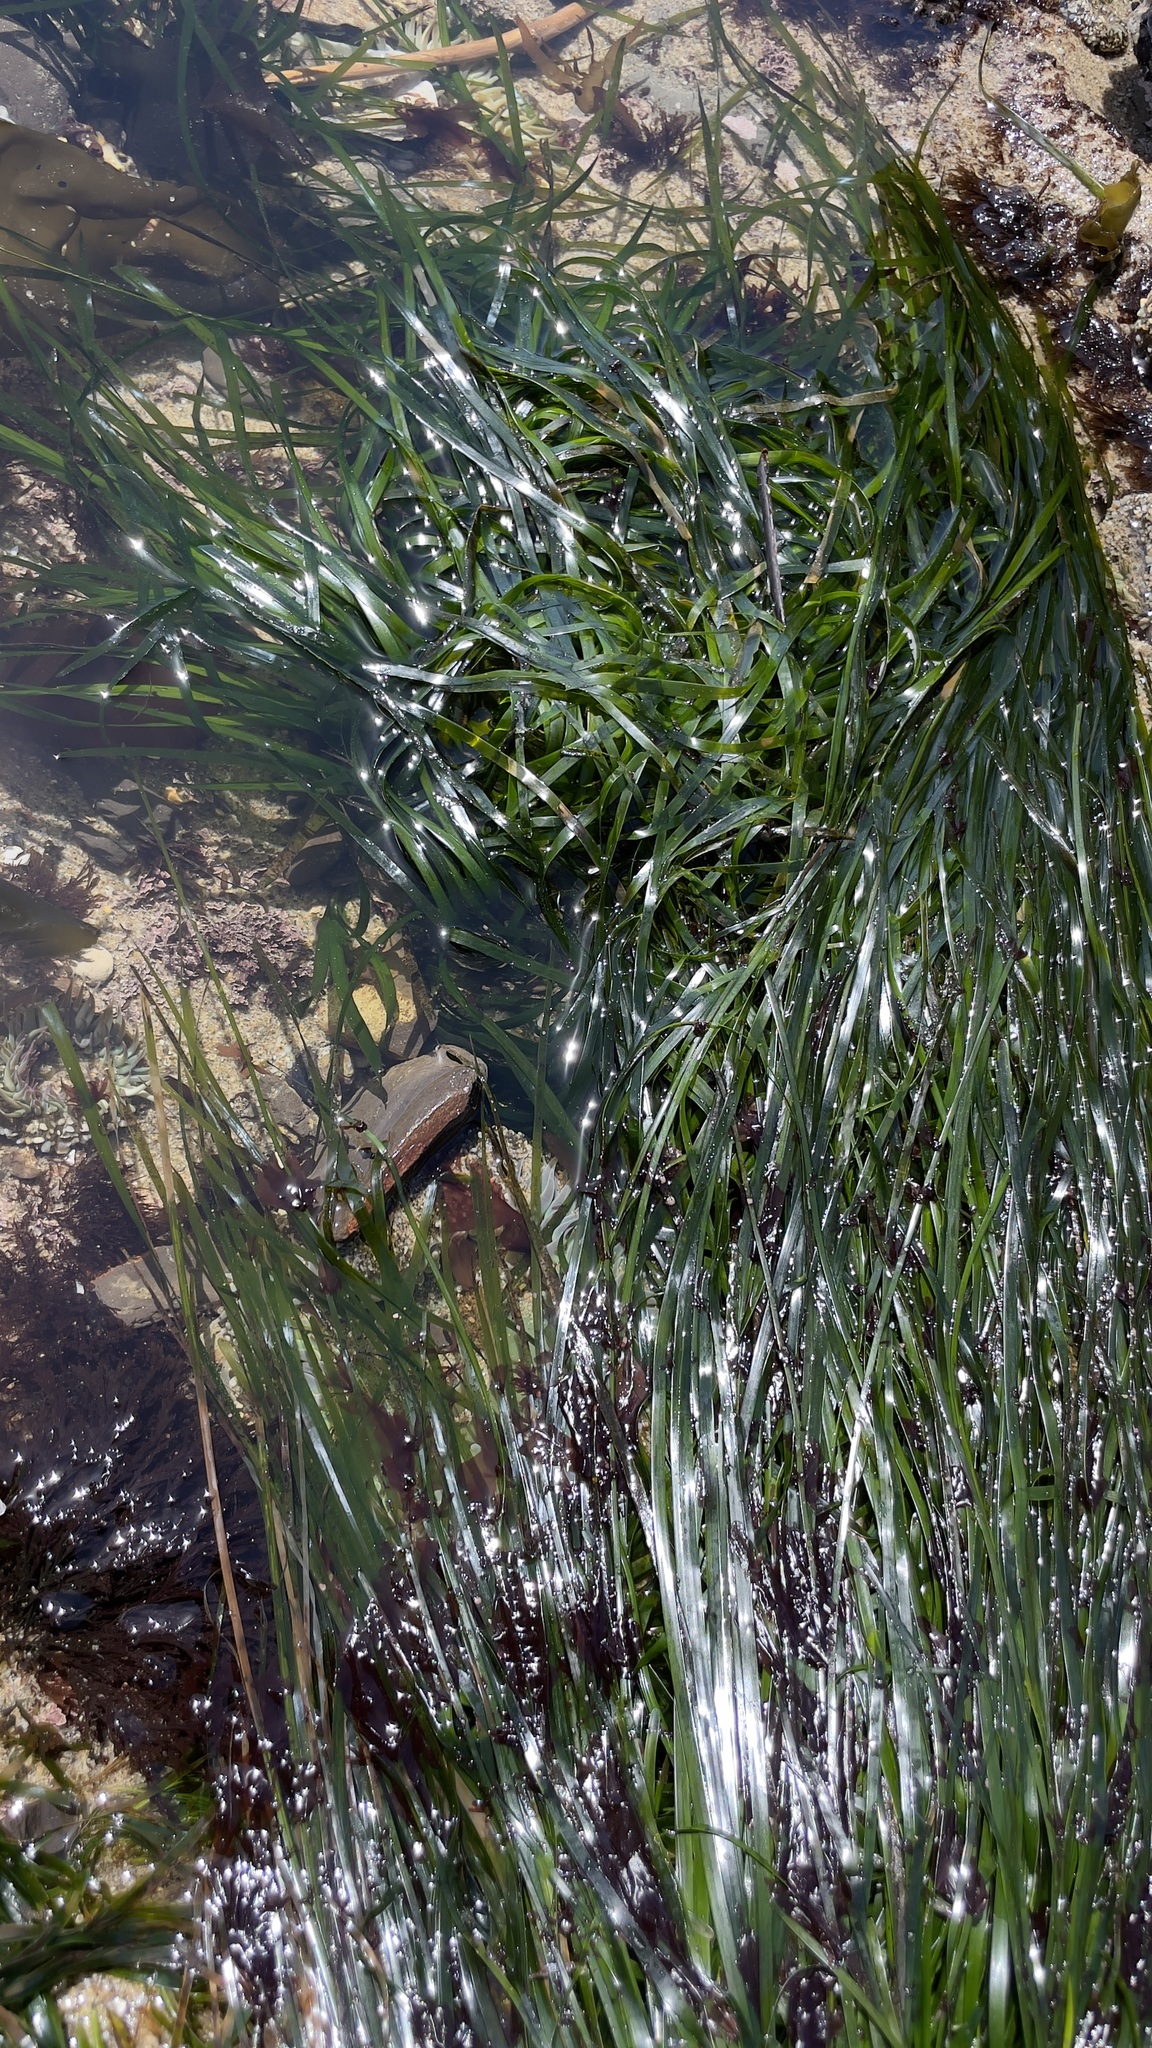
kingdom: Plantae
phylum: Tracheophyta
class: Liliopsida
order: Alismatales
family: Zosteraceae
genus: Phyllospadix
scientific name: Phyllospadix scouleri
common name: Species code: ps
